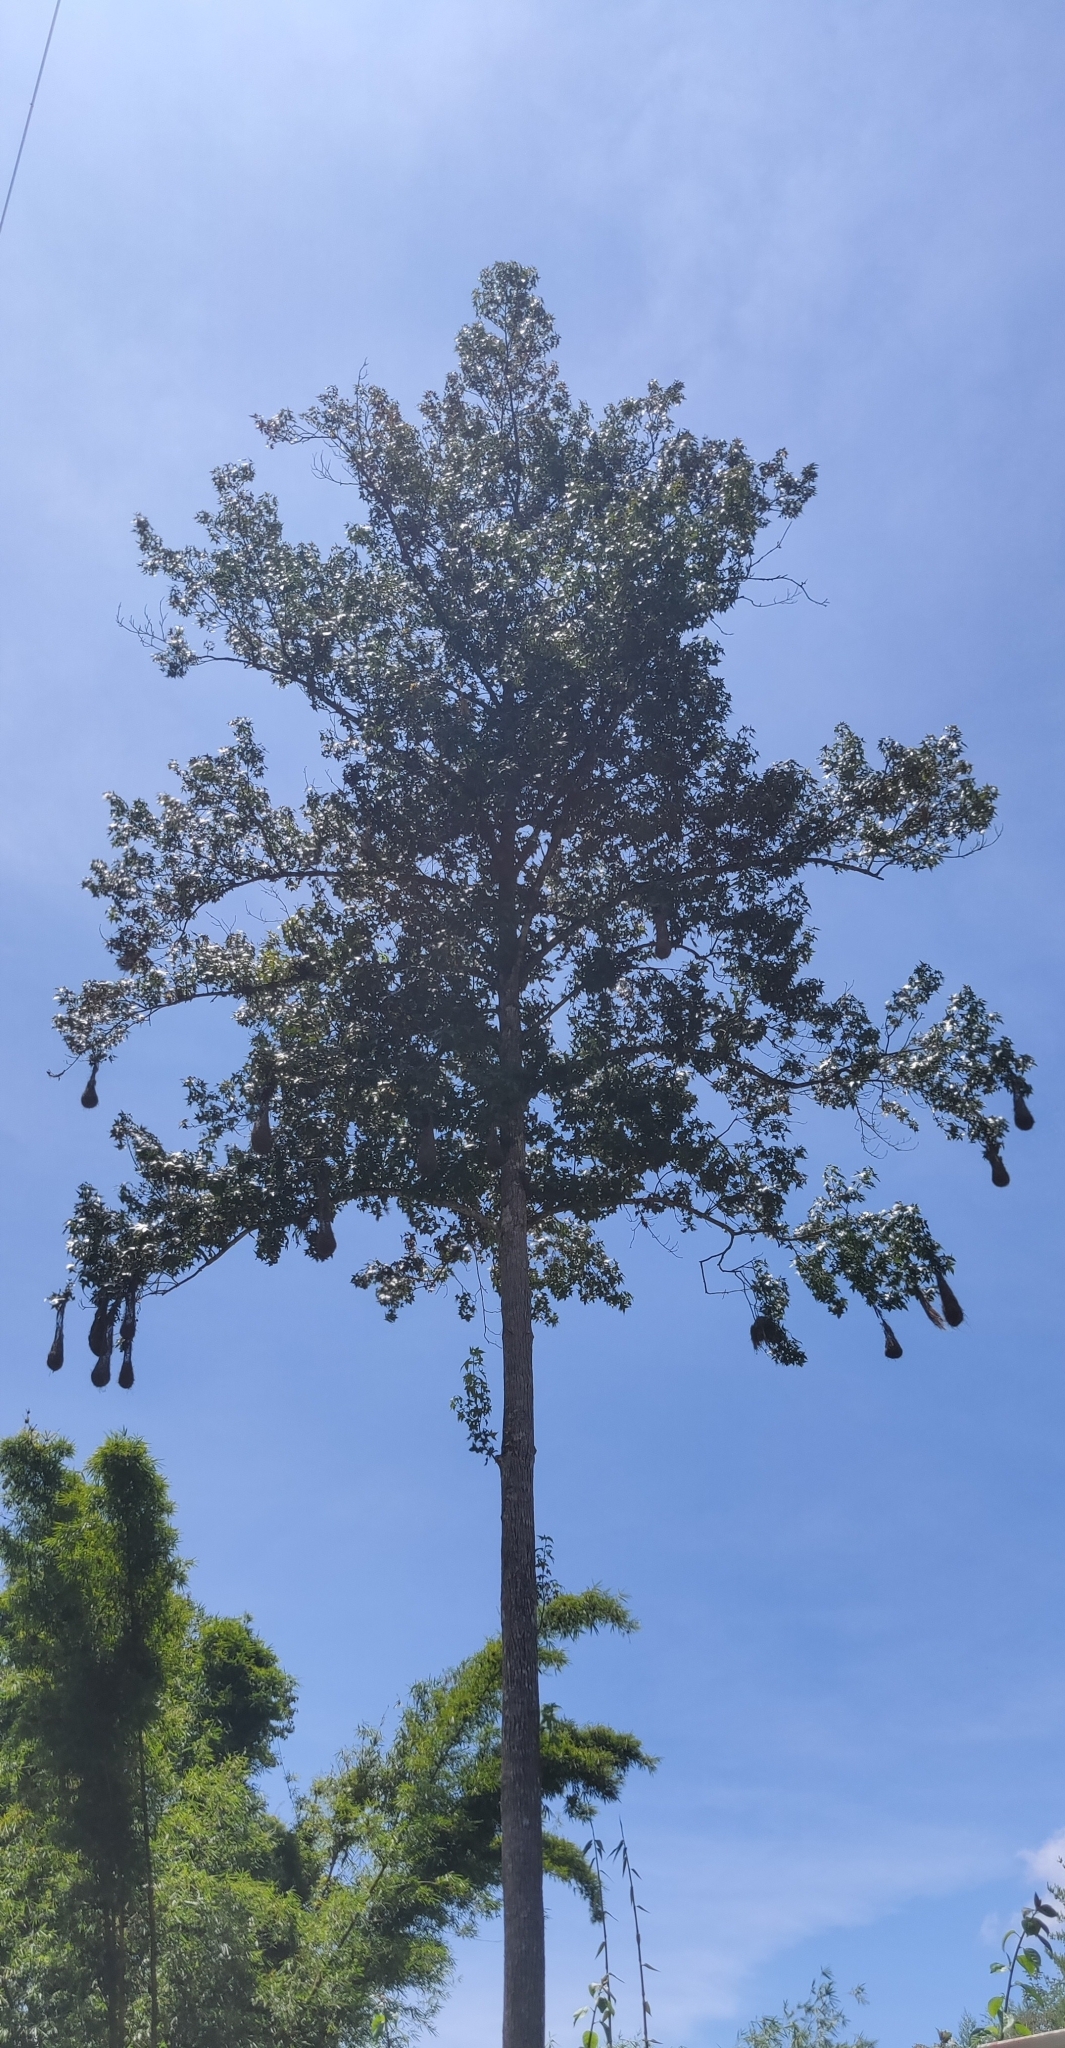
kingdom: Animalia
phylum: Chordata
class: Aves
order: Passeriformes
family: Icteridae
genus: Psarocolius
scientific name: Psarocolius wagleri
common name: Chestnut-headed oropendola
